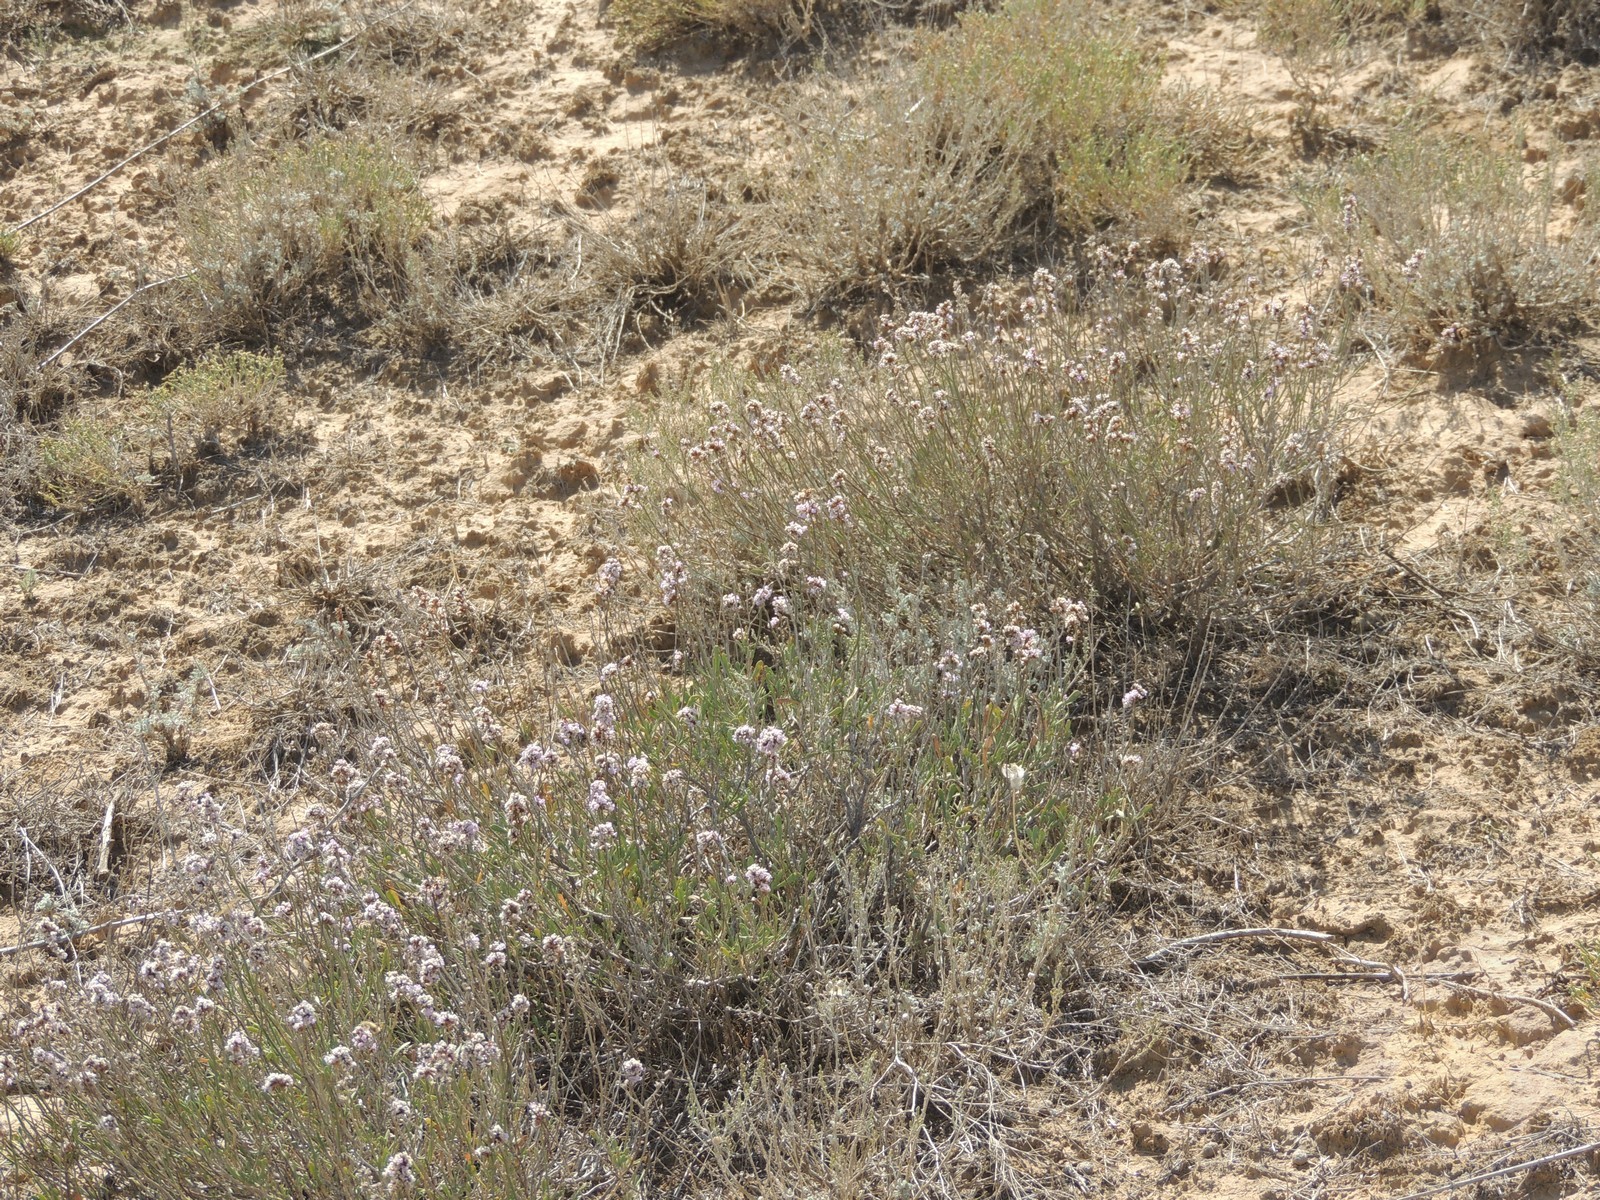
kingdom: Plantae
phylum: Tracheophyta
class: Magnoliopsida
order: Caryophyllales
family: Plumbaginaceae
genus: Limonium
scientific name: Limonium suffruticosum
